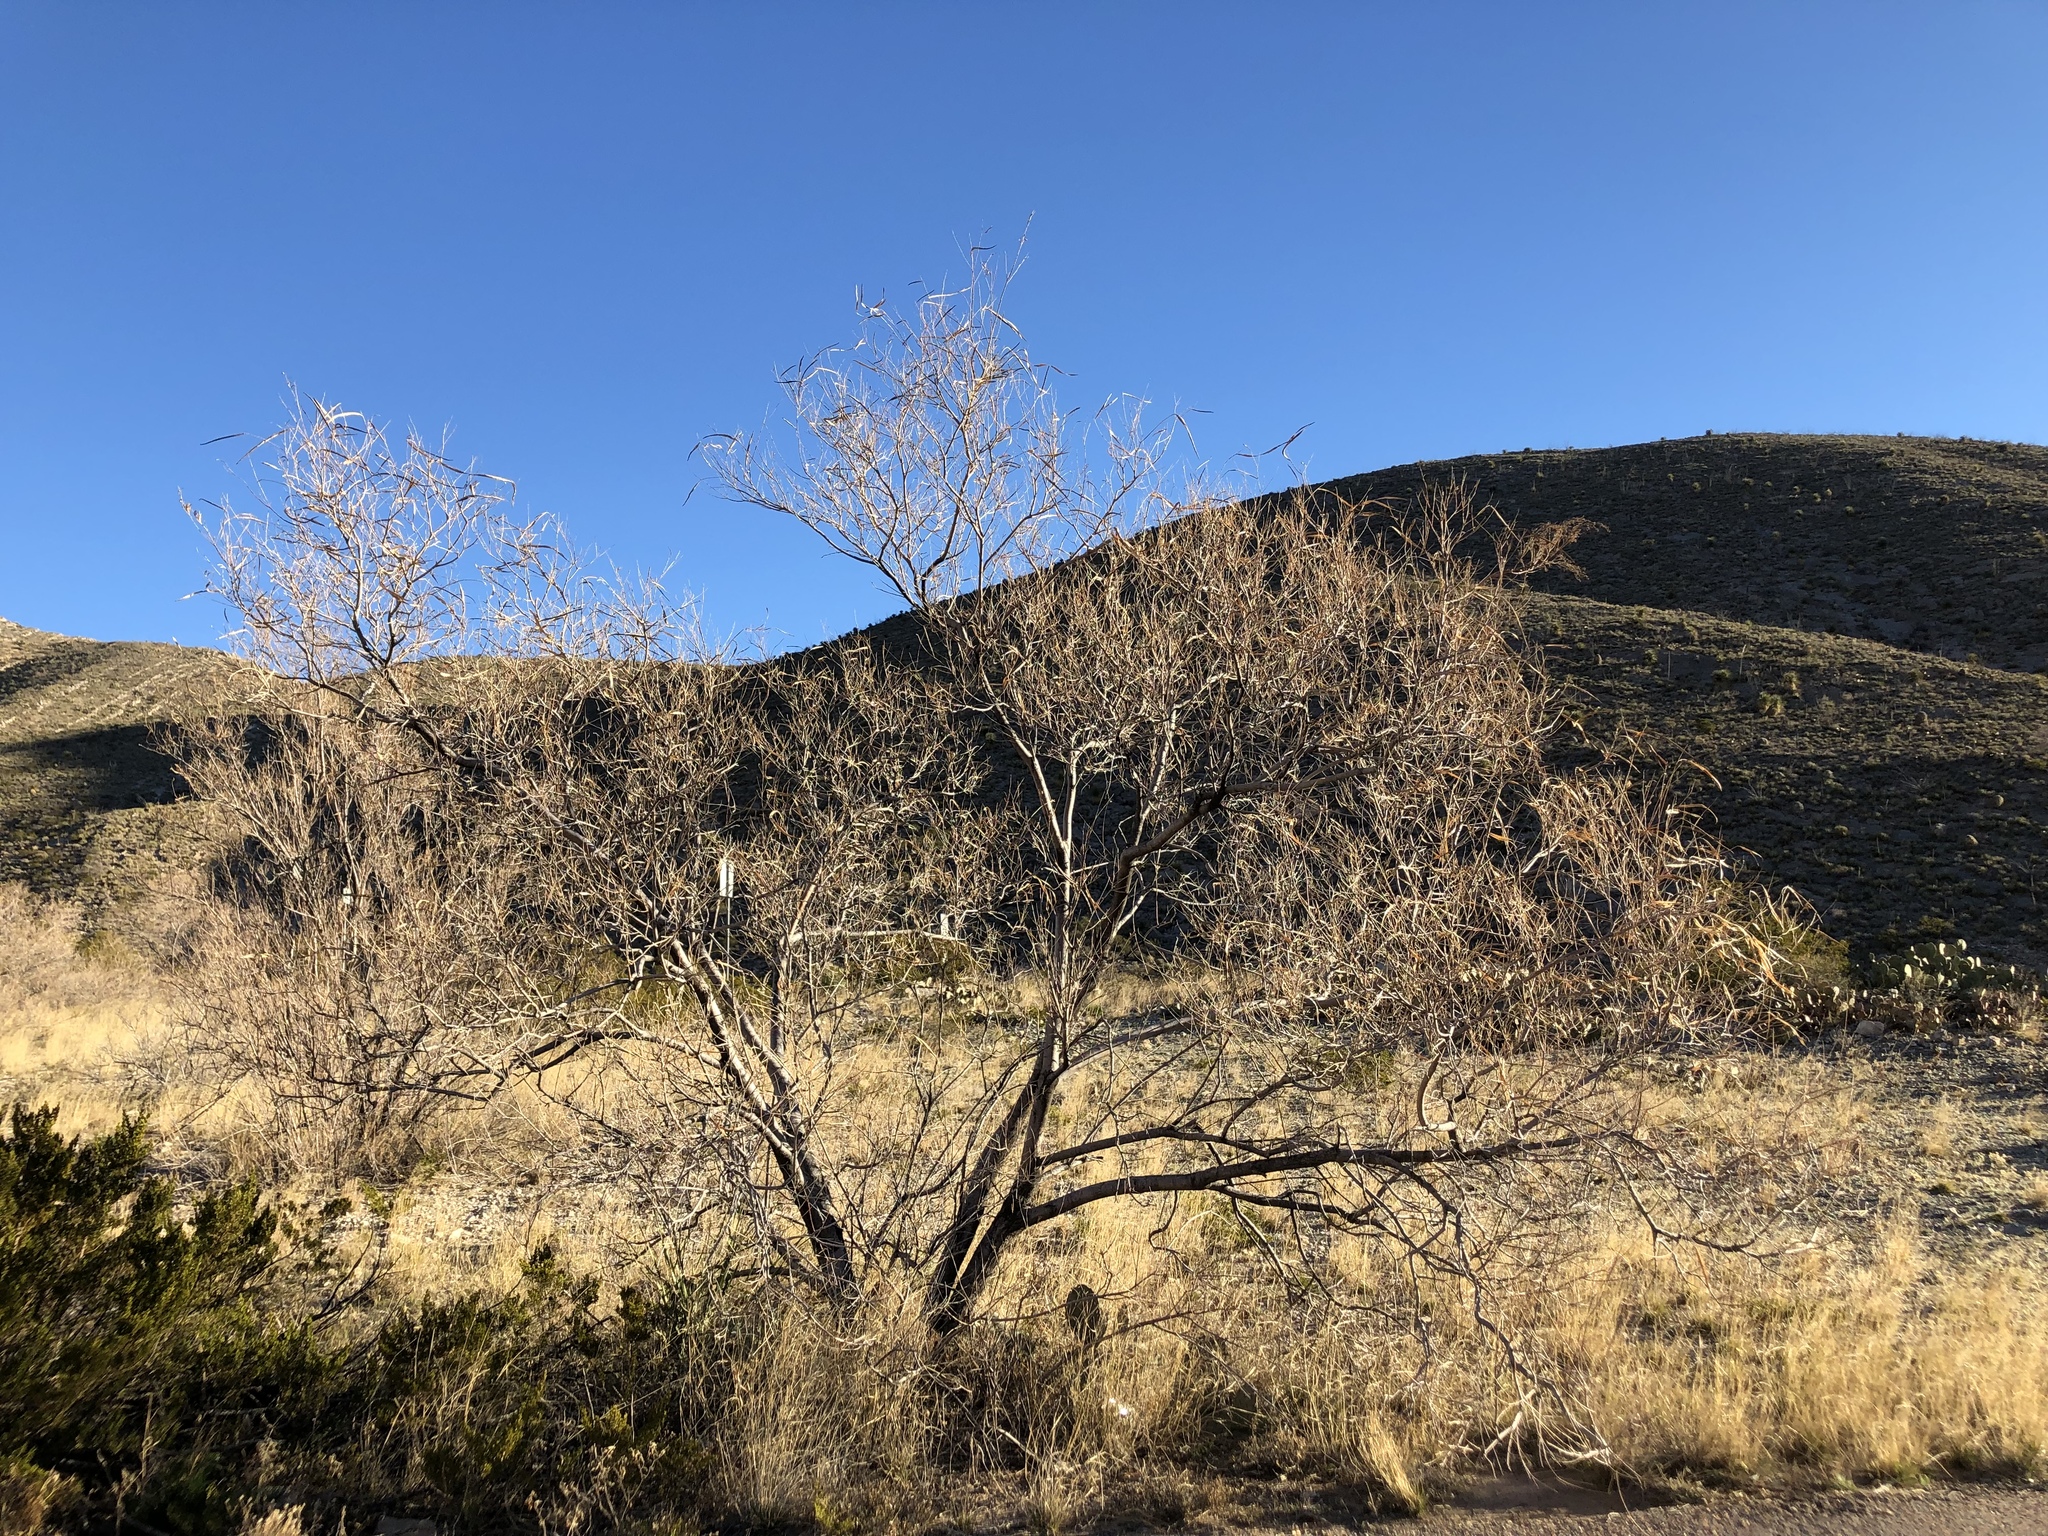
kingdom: Plantae
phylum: Tracheophyta
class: Magnoliopsida
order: Lamiales
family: Bignoniaceae
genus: Chilopsis
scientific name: Chilopsis linearis
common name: Desert-willow
